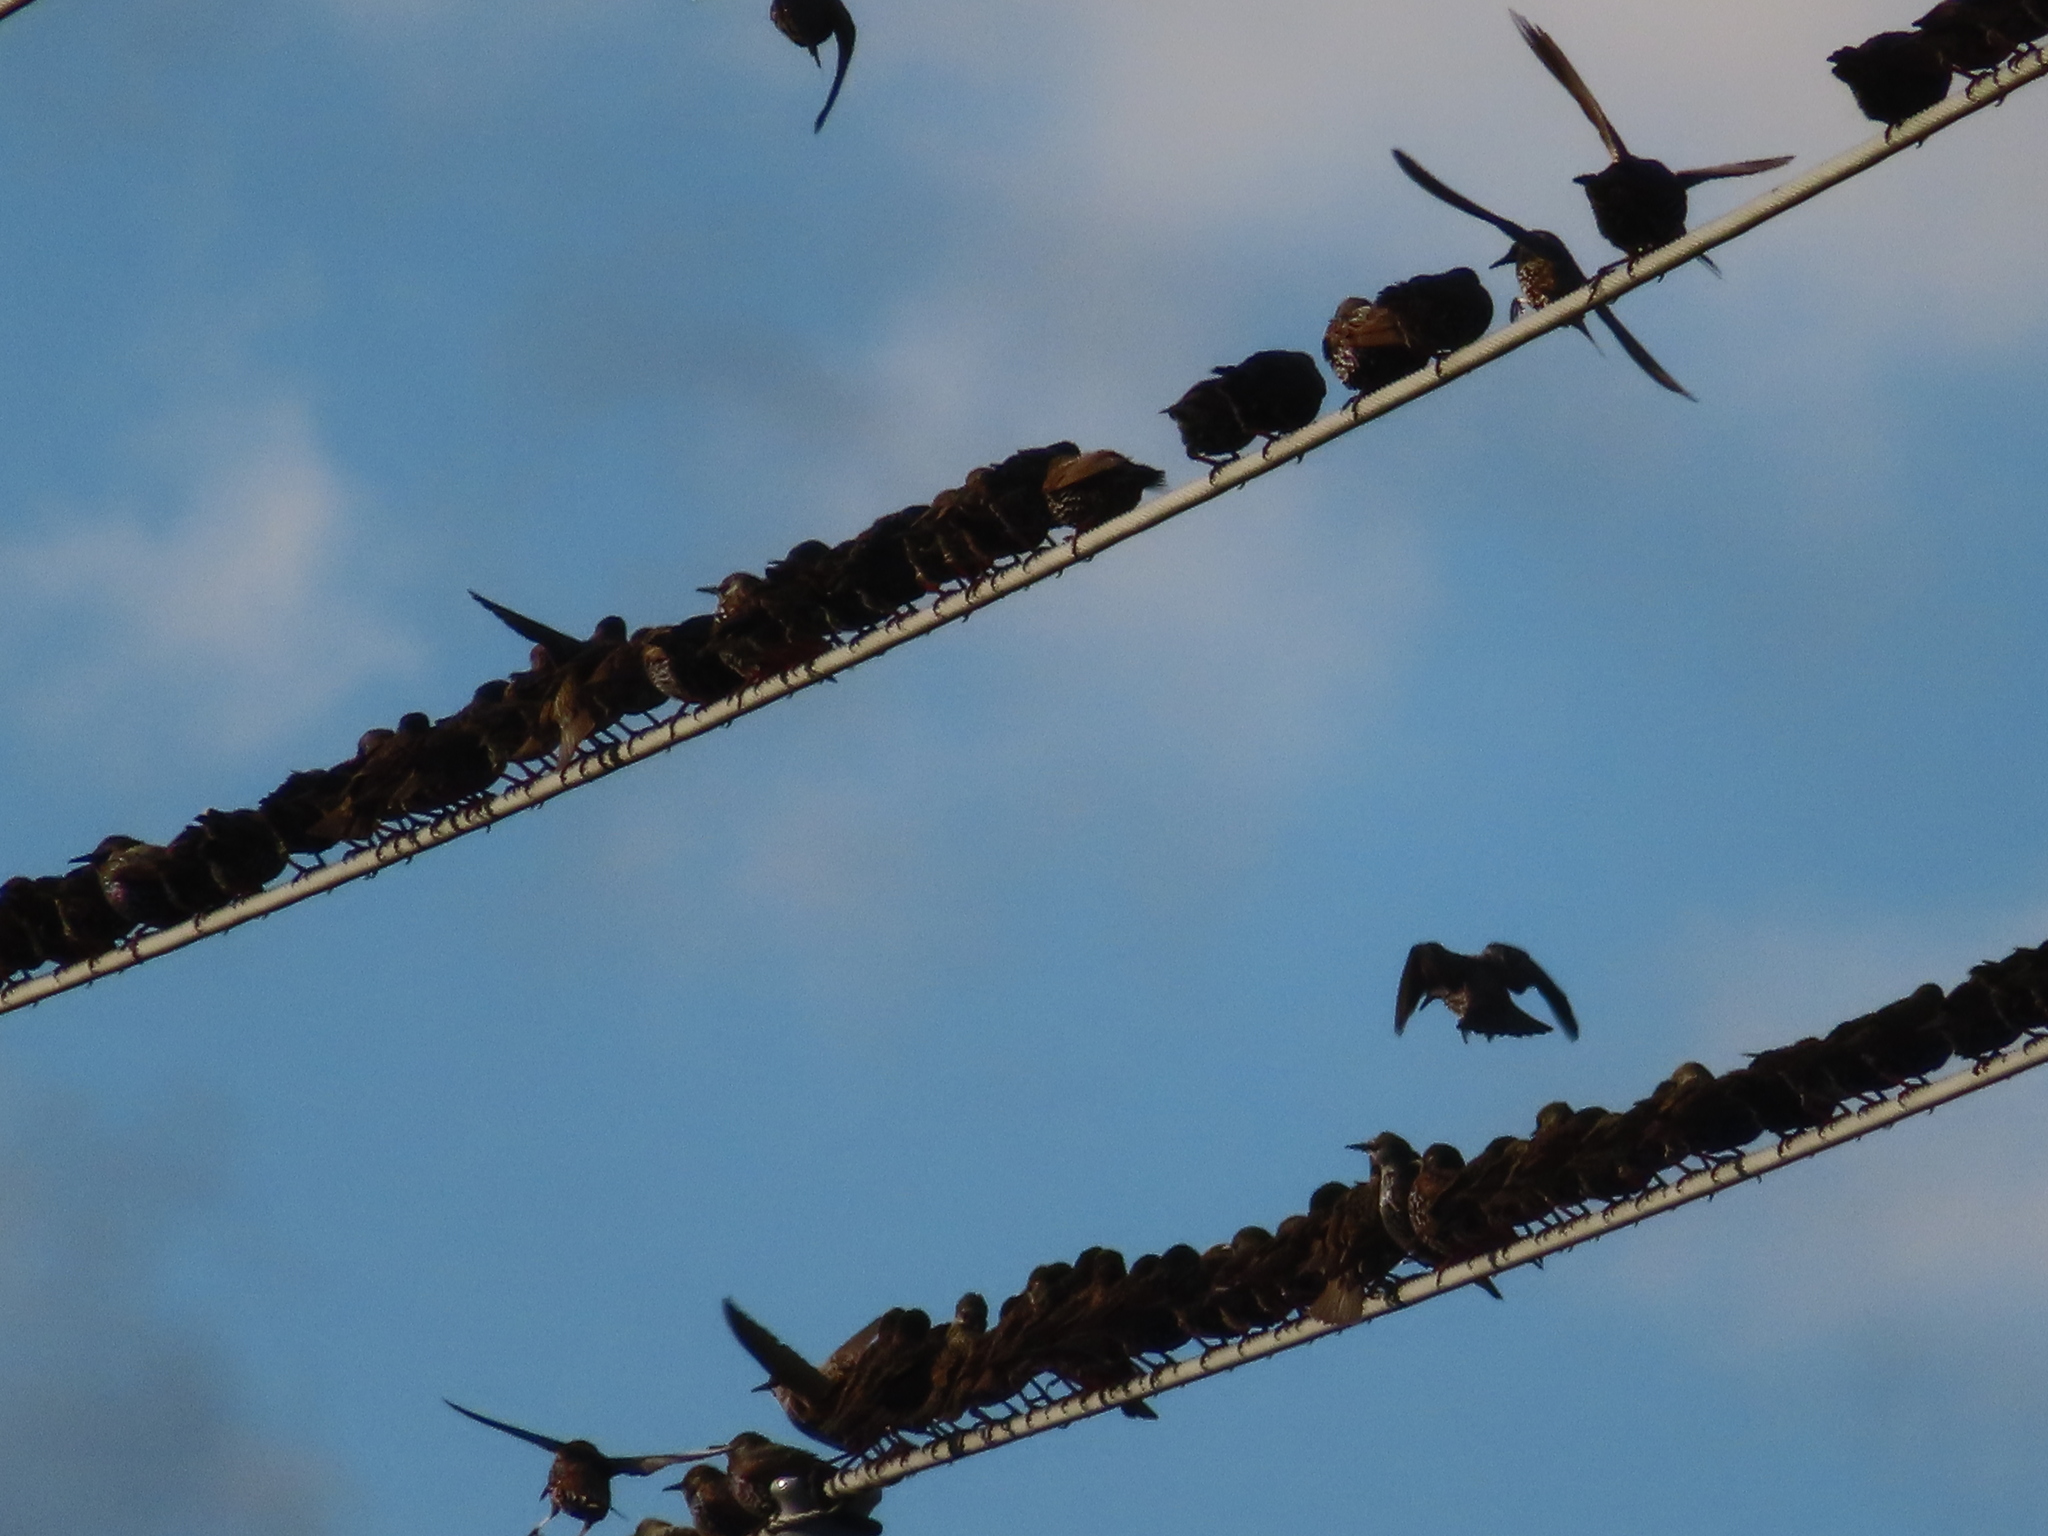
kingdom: Animalia
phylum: Chordata
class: Aves
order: Passeriformes
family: Sturnidae
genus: Sturnus
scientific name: Sturnus vulgaris
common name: Common starling
